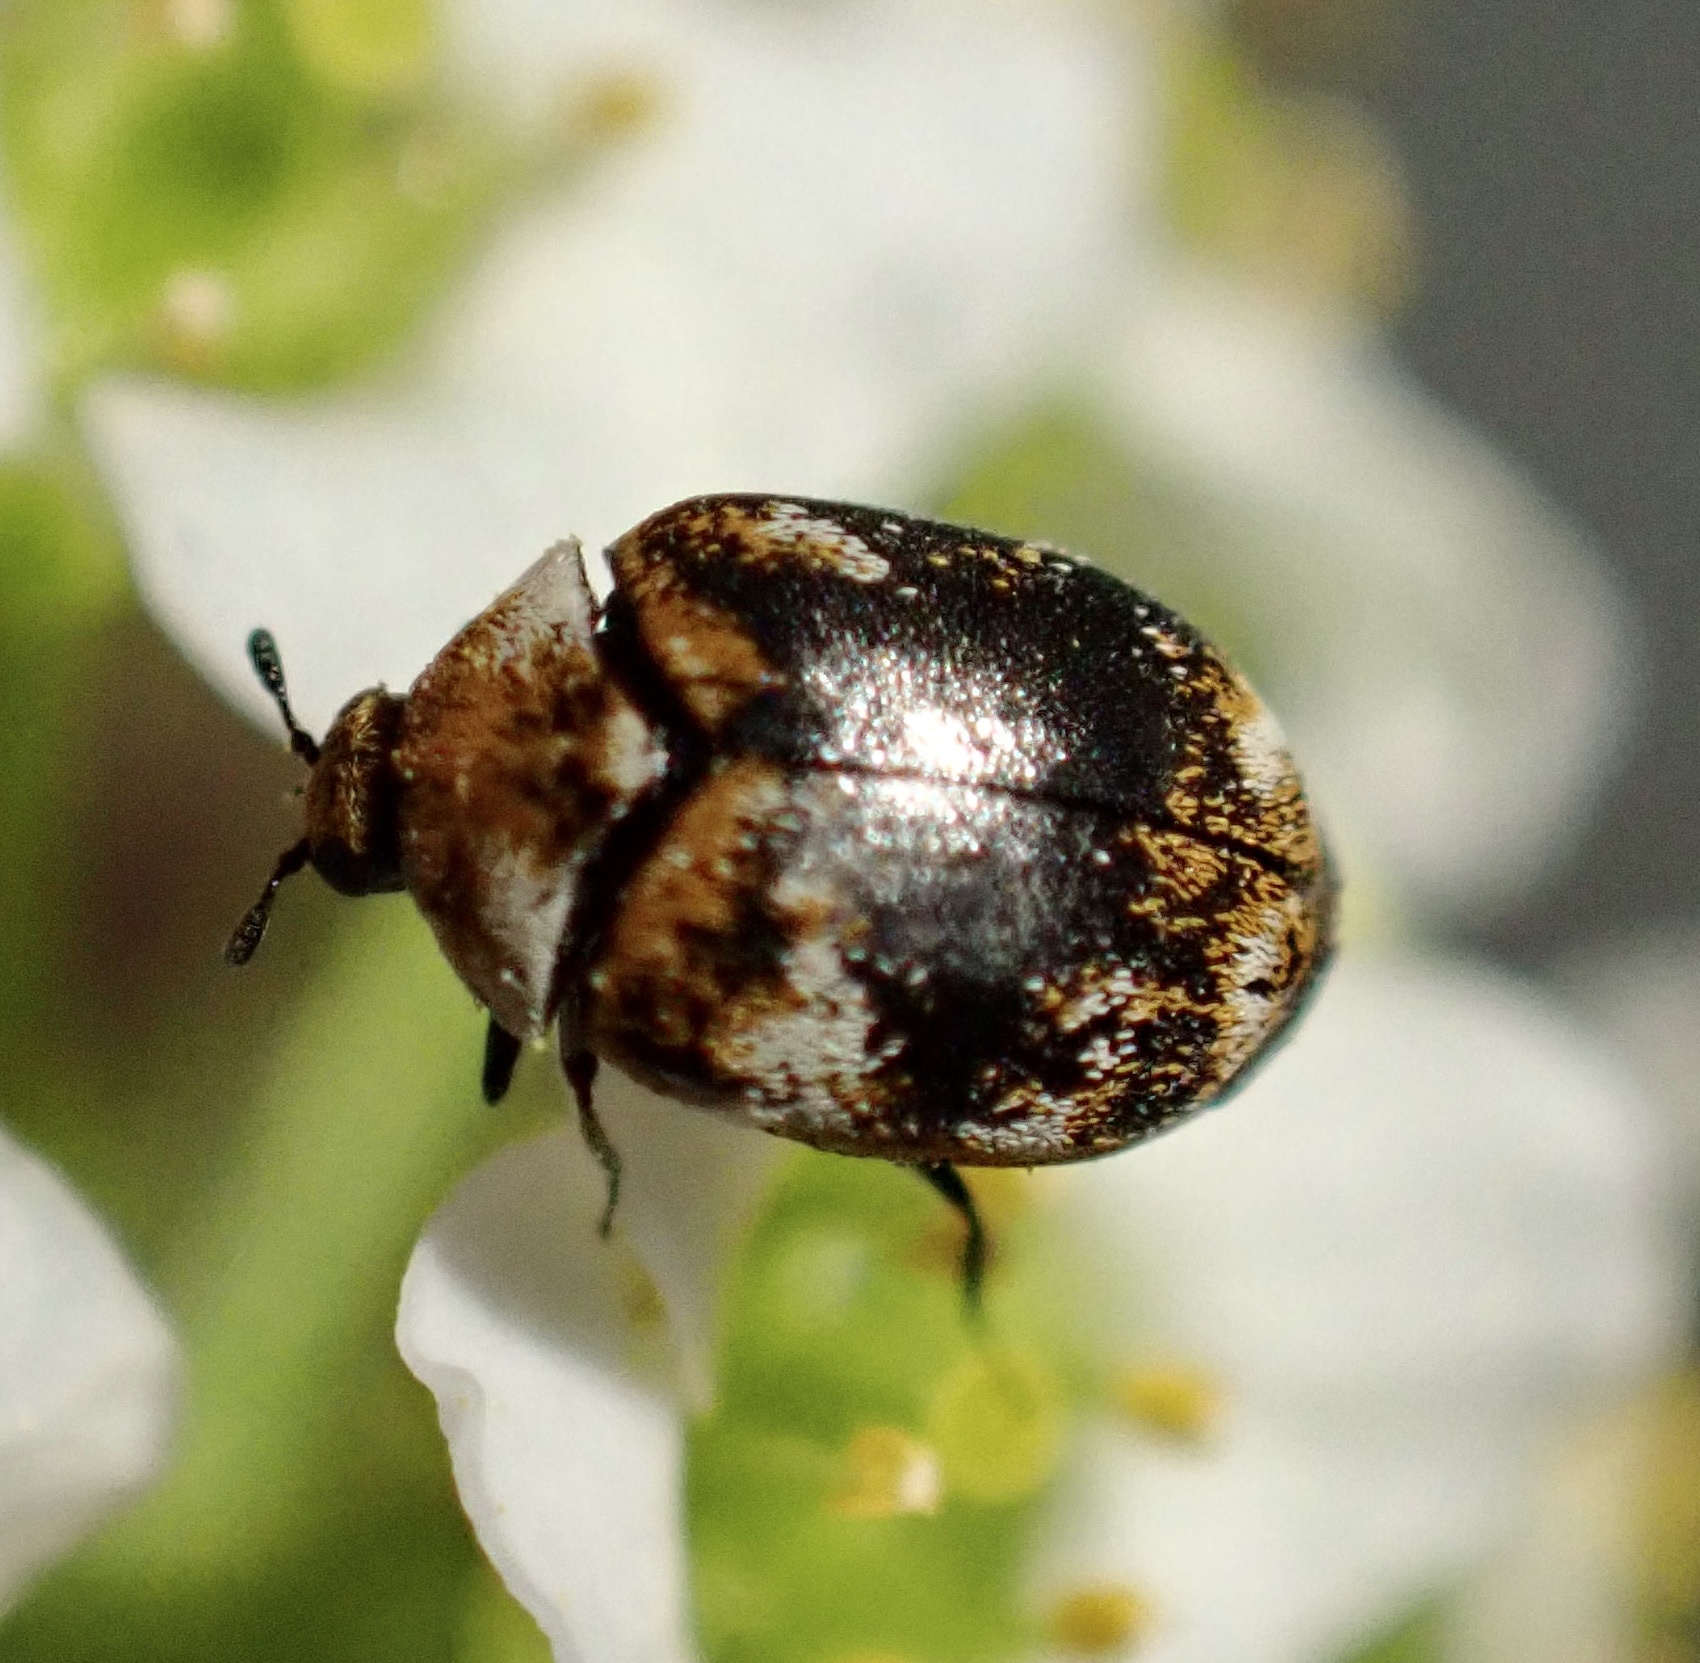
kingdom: Animalia
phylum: Arthropoda
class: Insecta
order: Coleoptera
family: Dermestidae
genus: Anthrenus
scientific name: Anthrenus verbasci
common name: Varied carpet beetle
